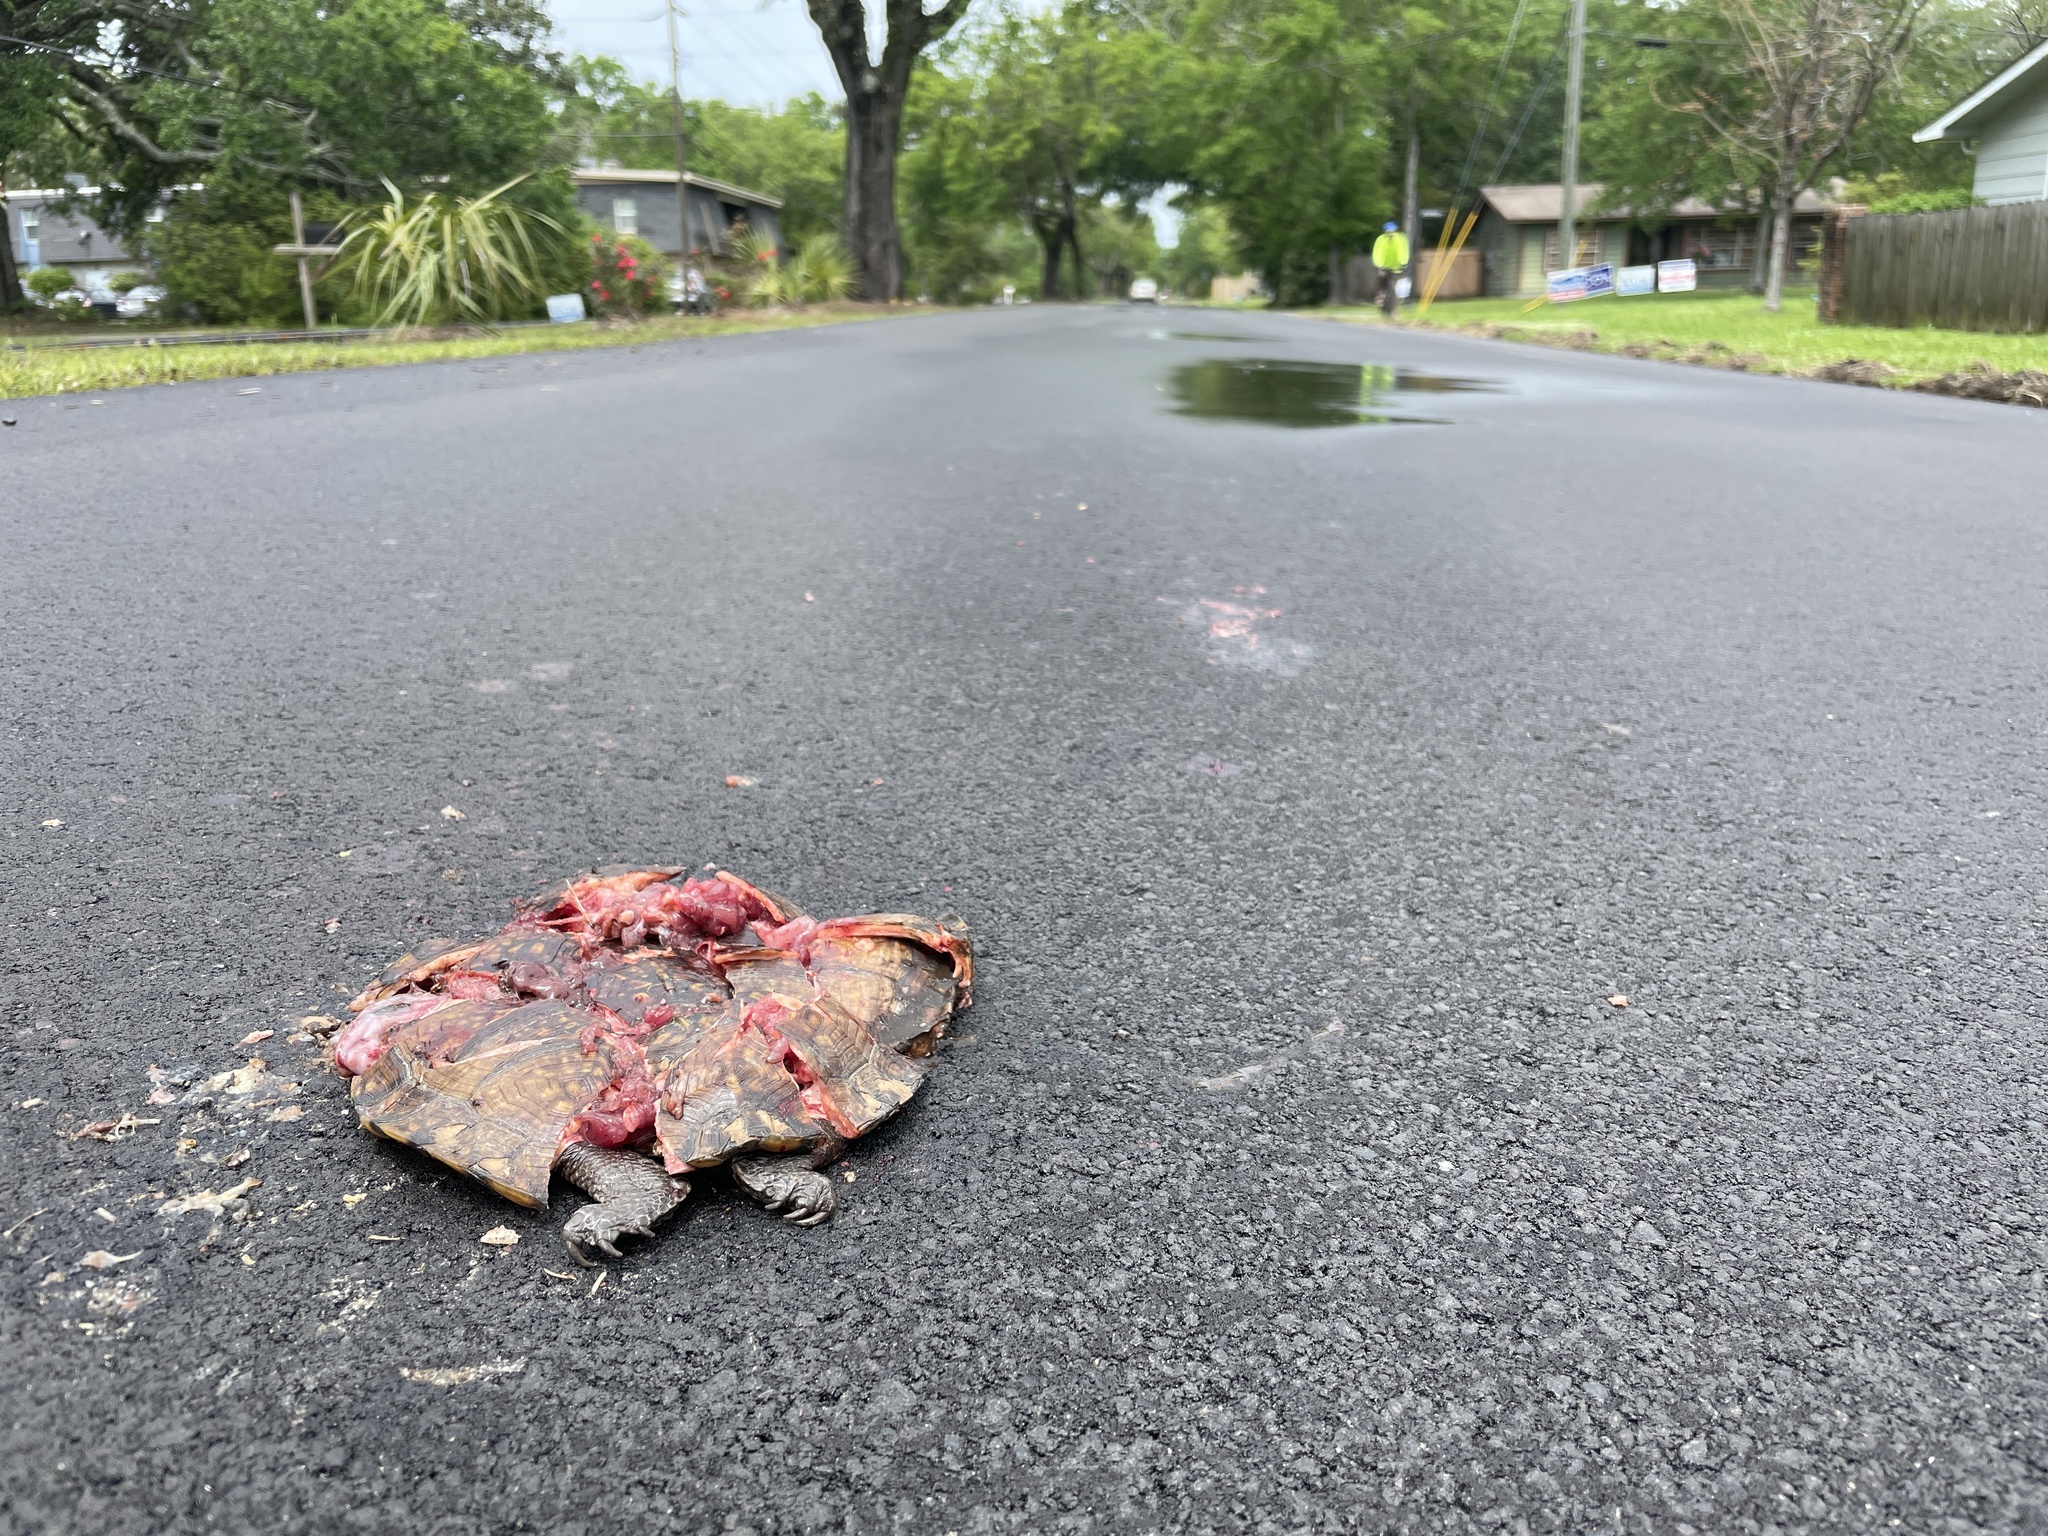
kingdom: Animalia
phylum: Chordata
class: Testudines
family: Emydidae
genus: Terrapene
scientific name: Terrapene carolina
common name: Common box turtle
